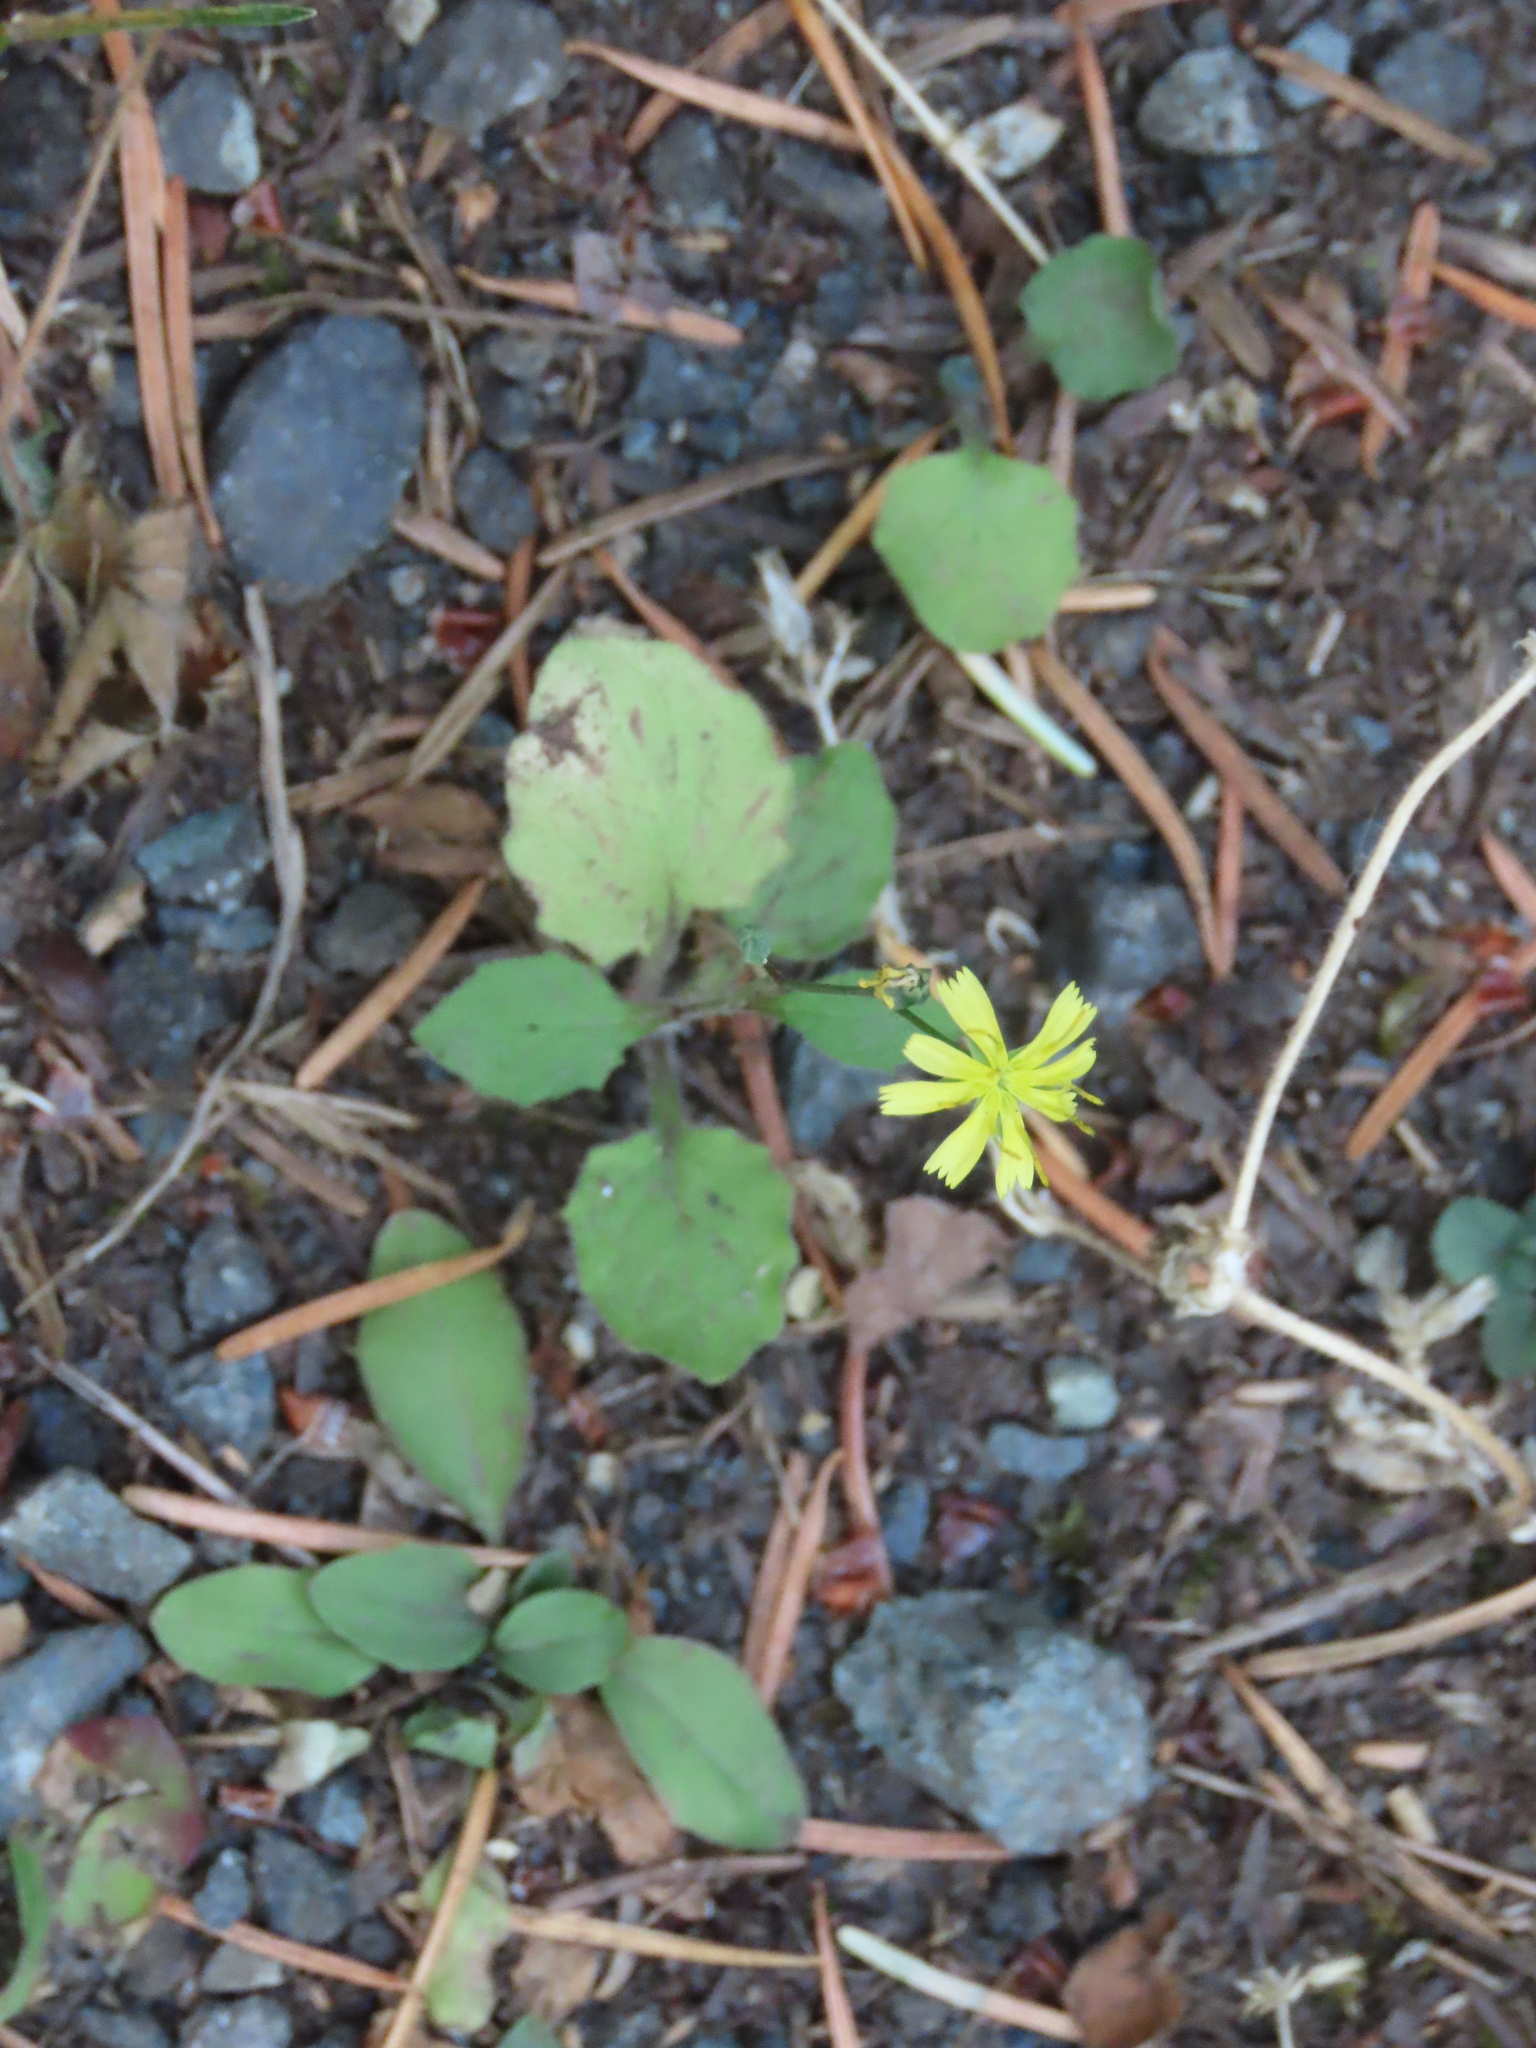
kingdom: Plantae
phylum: Tracheophyta
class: Magnoliopsida
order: Asterales
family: Asteraceae
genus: Lapsana
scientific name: Lapsana communis
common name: Nipplewort
